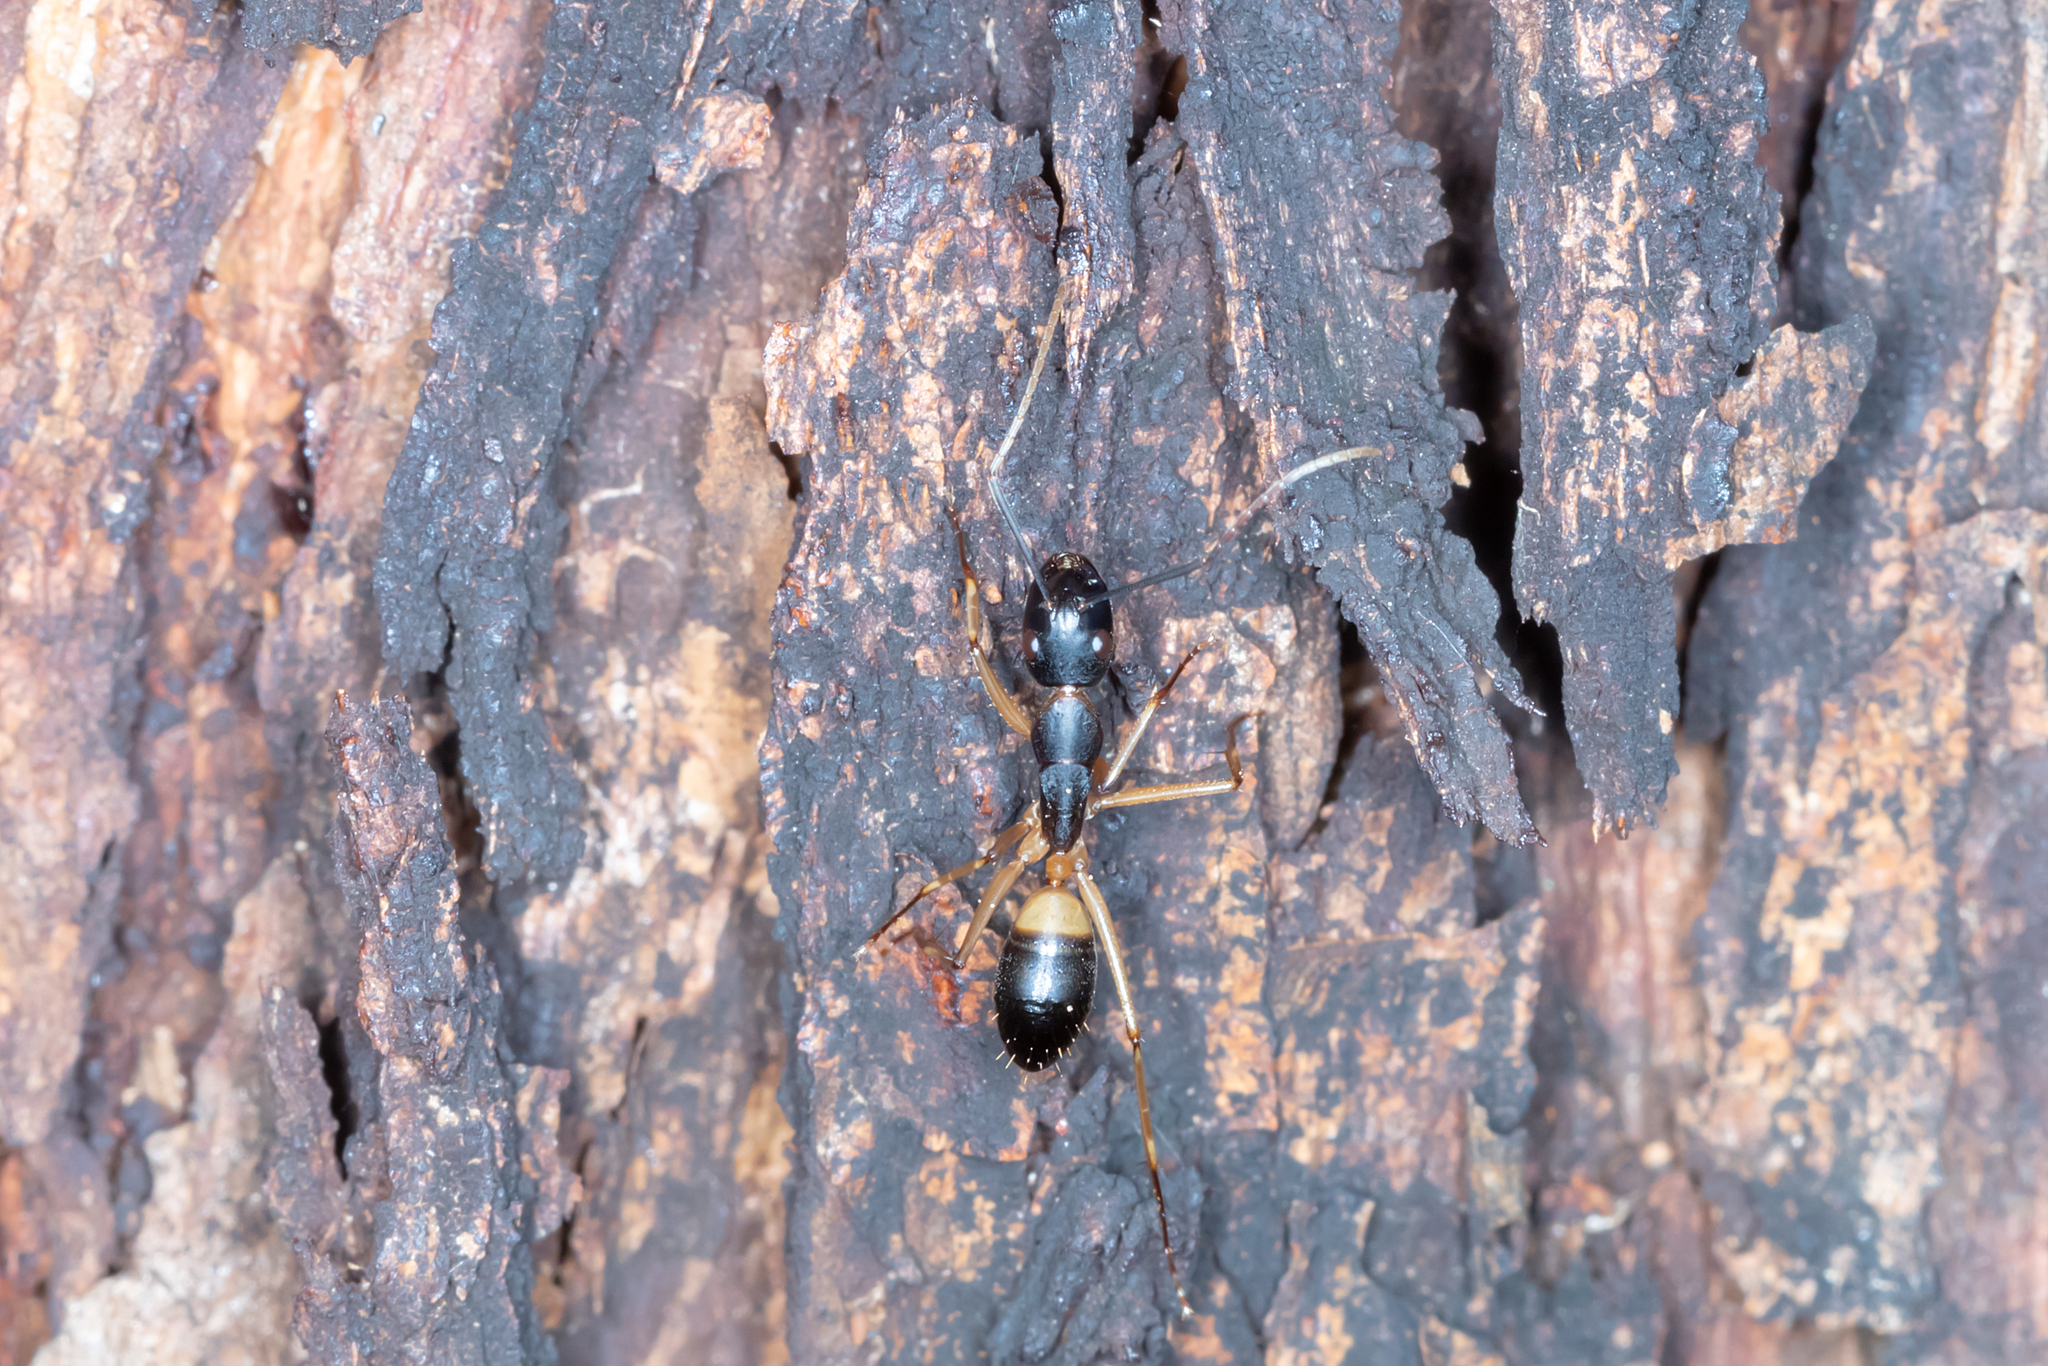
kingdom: Animalia
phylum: Arthropoda
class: Insecta
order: Hymenoptera
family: Formicidae
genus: Camponotus
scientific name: Camponotus consobrinus
